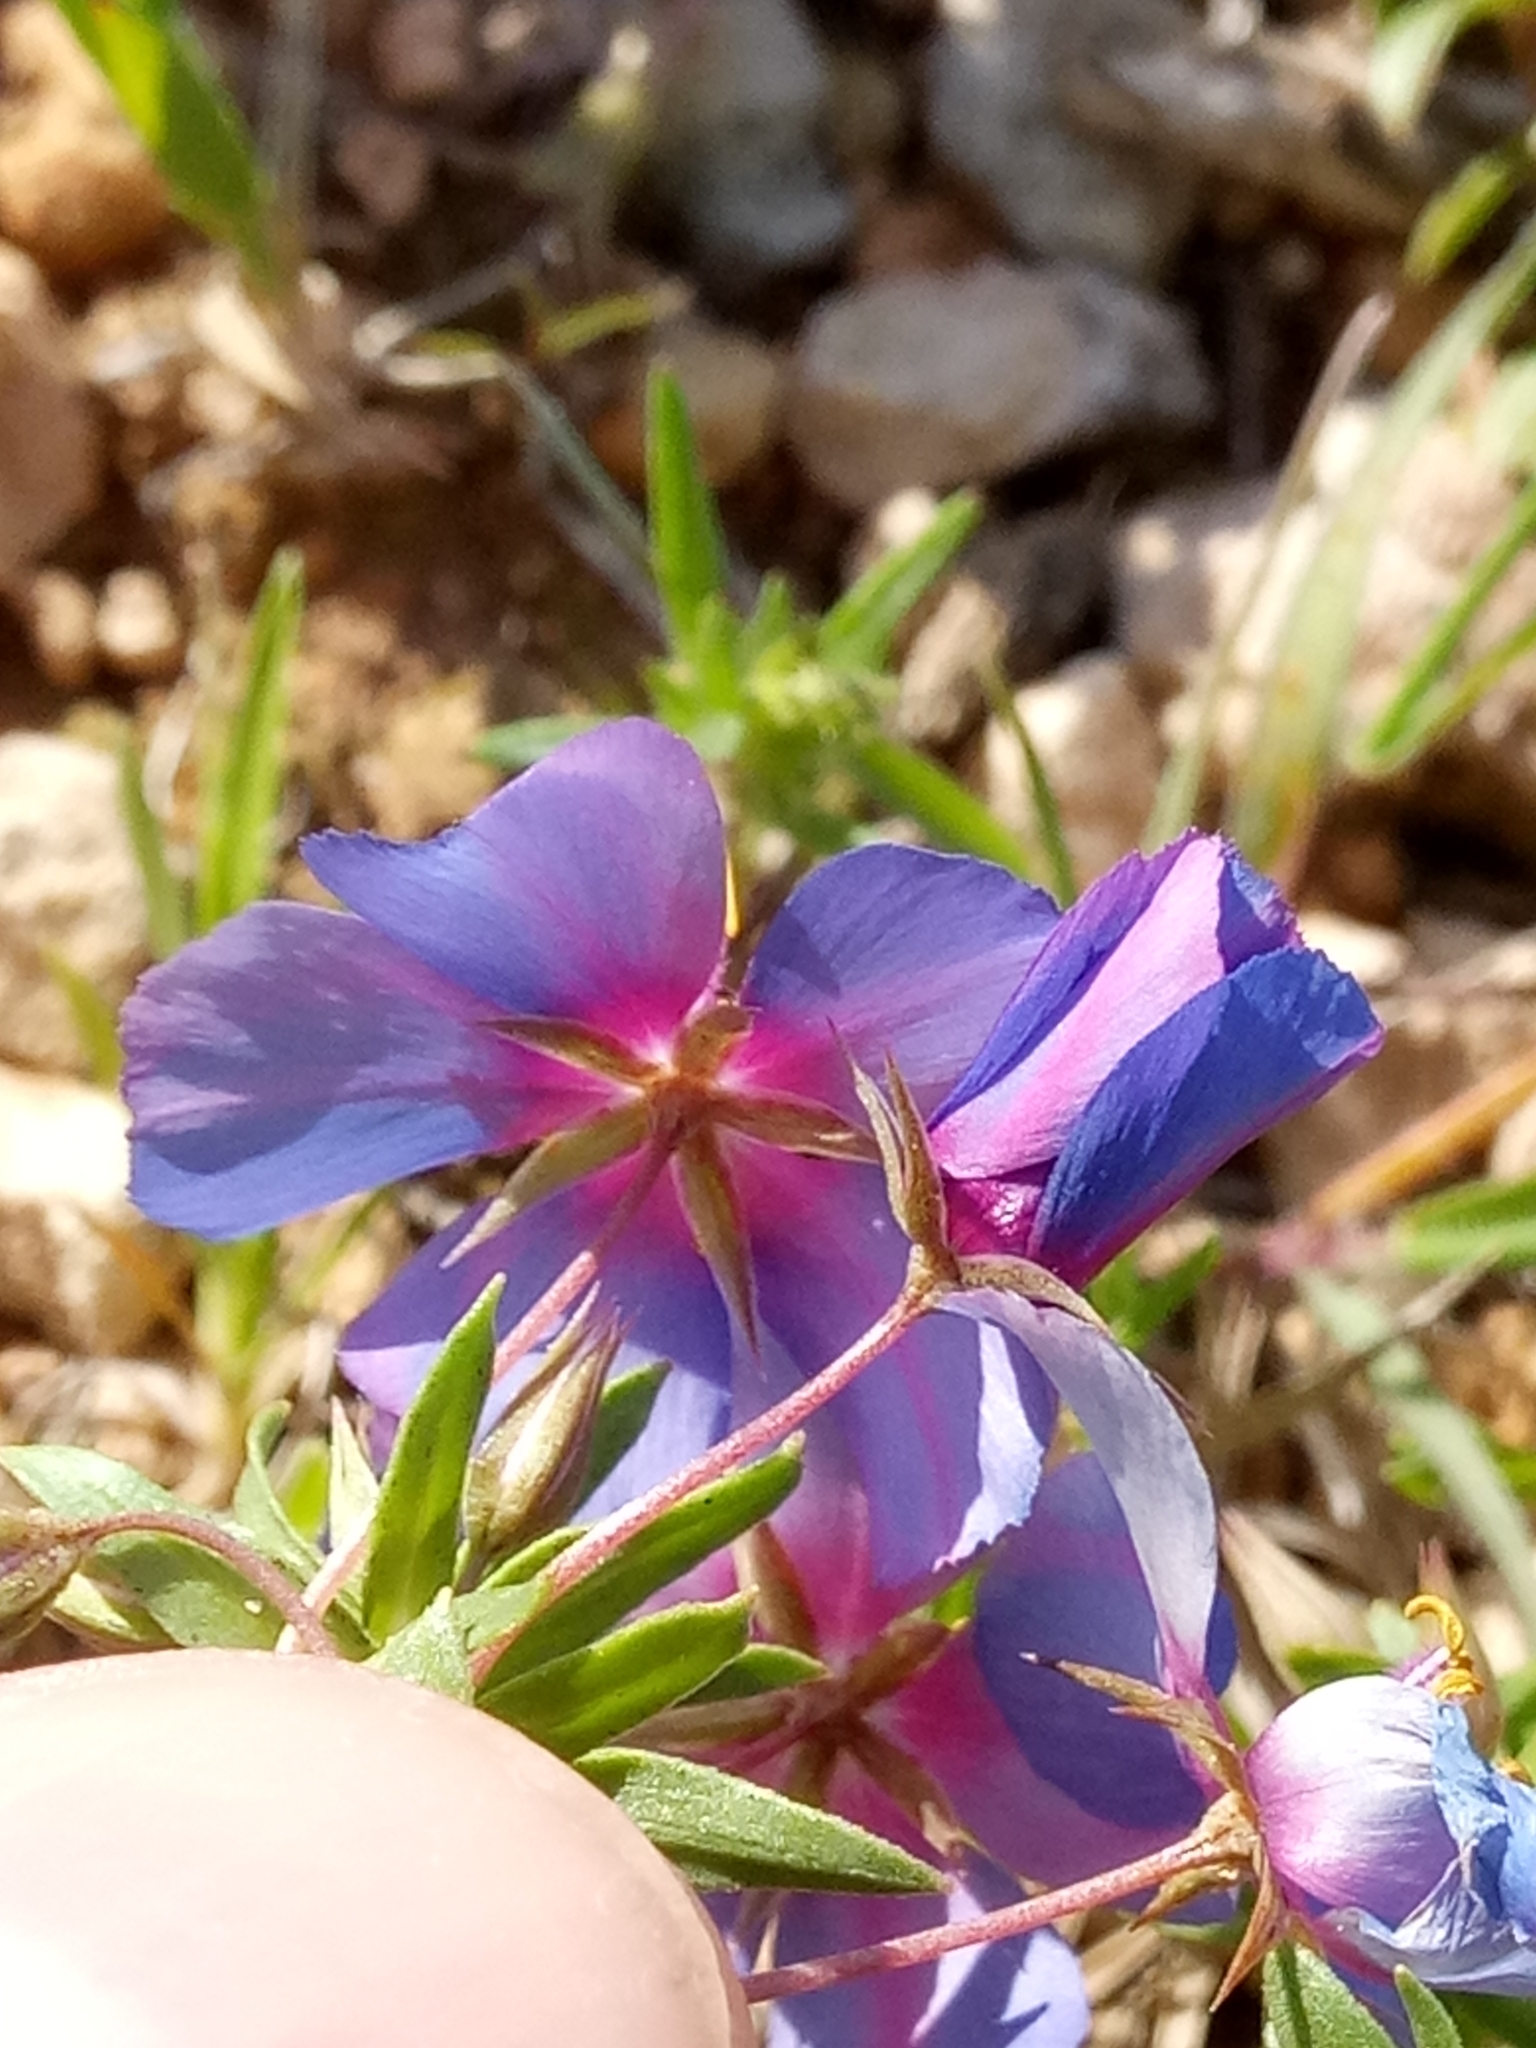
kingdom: Plantae
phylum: Tracheophyta
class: Magnoliopsida
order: Ericales
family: Primulaceae
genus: Lysimachia
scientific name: Lysimachia monelli
